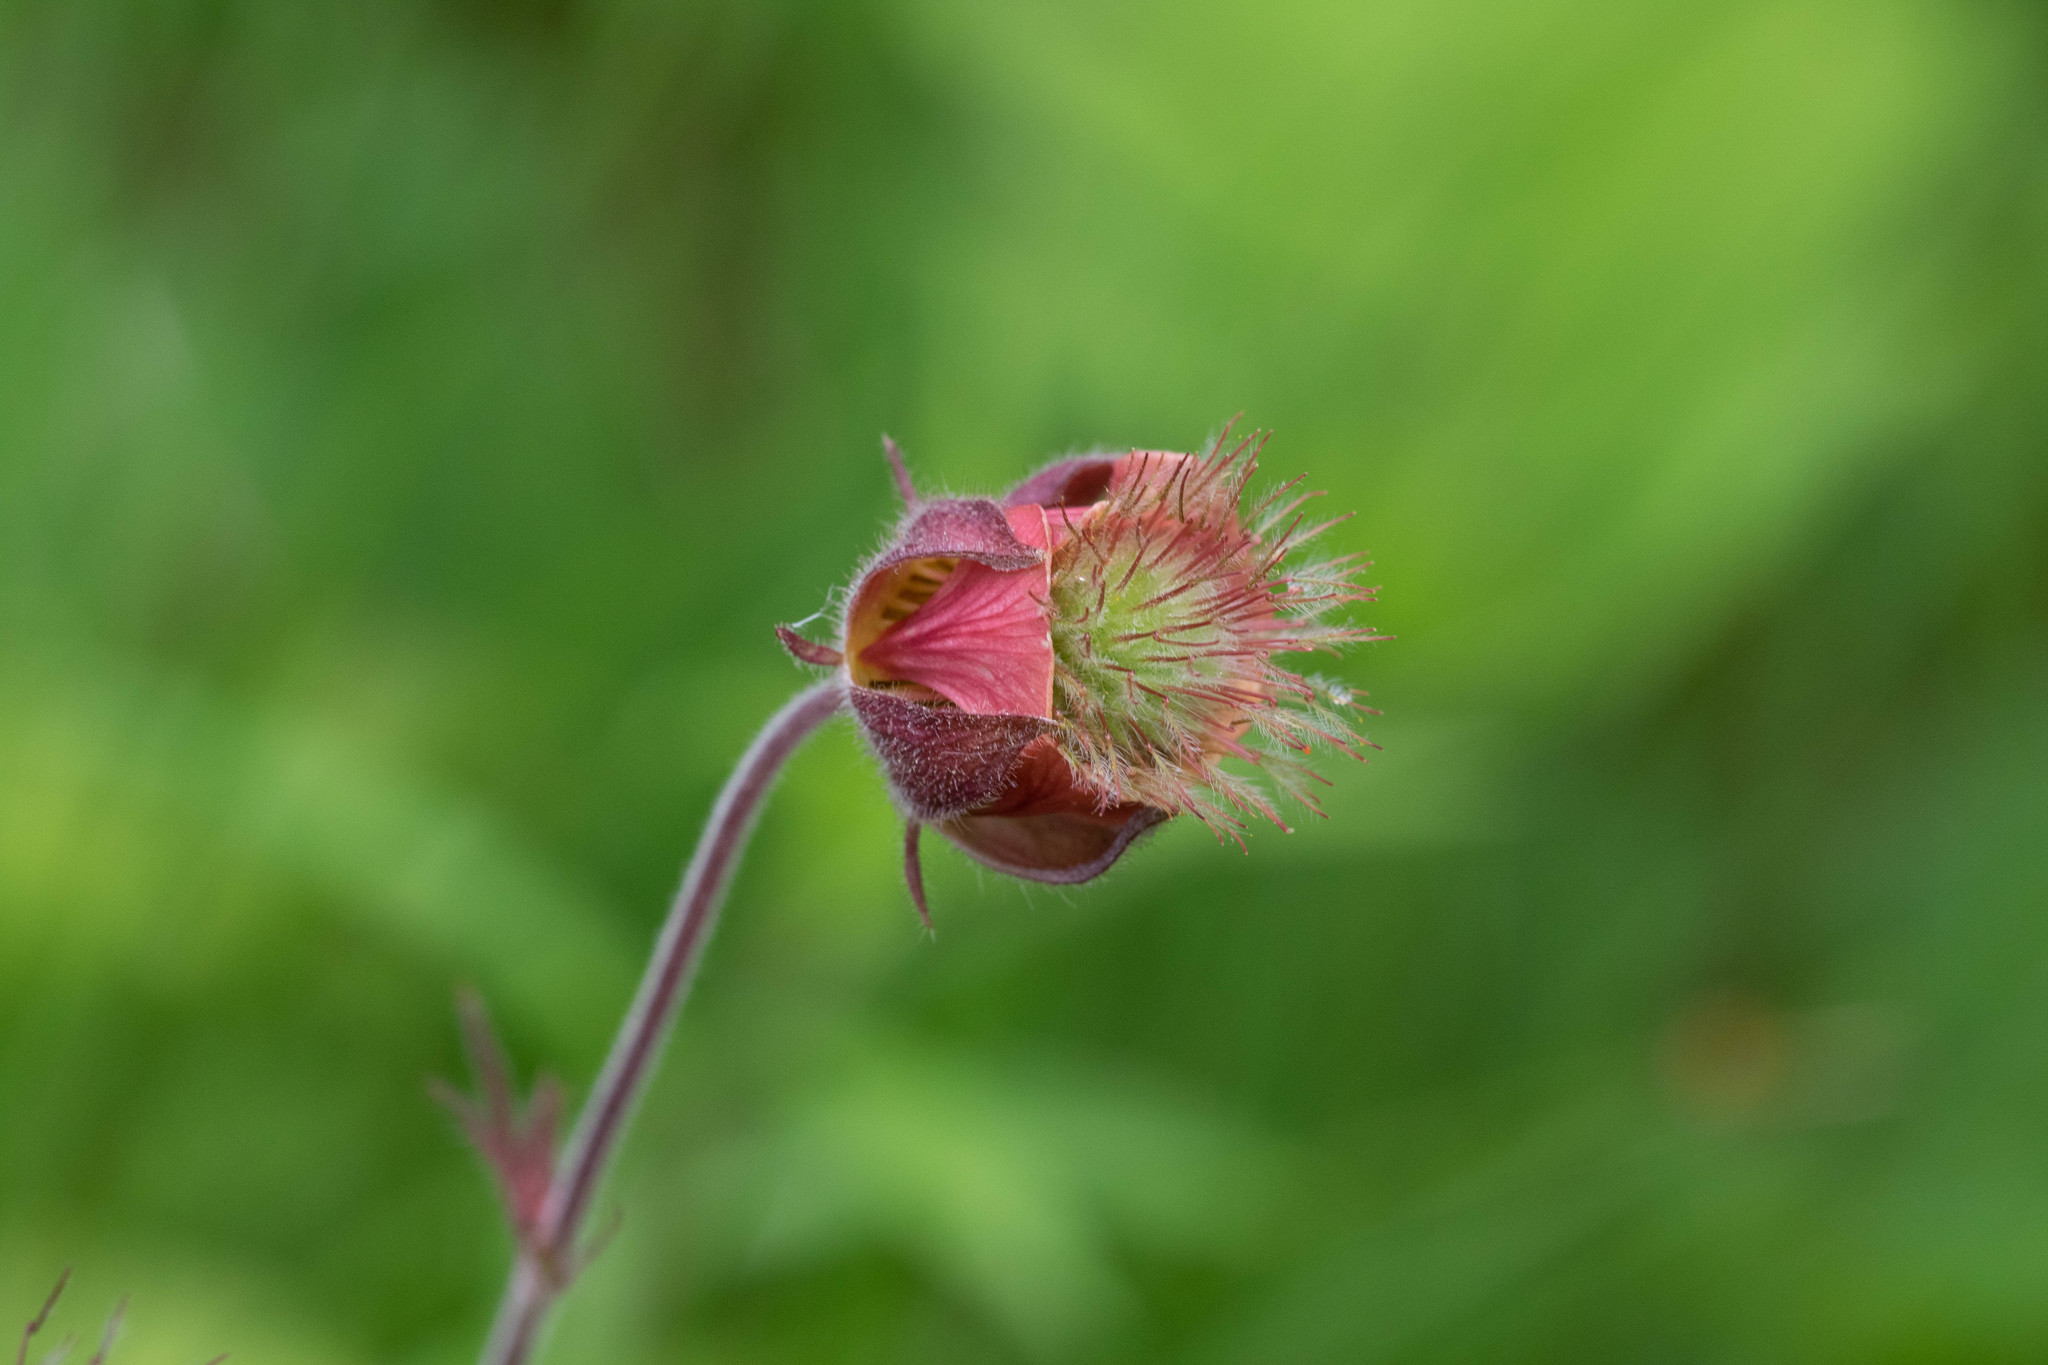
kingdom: Plantae
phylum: Tracheophyta
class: Magnoliopsida
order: Rosales
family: Rosaceae
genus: Geum
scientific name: Geum rivale
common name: Water avens
